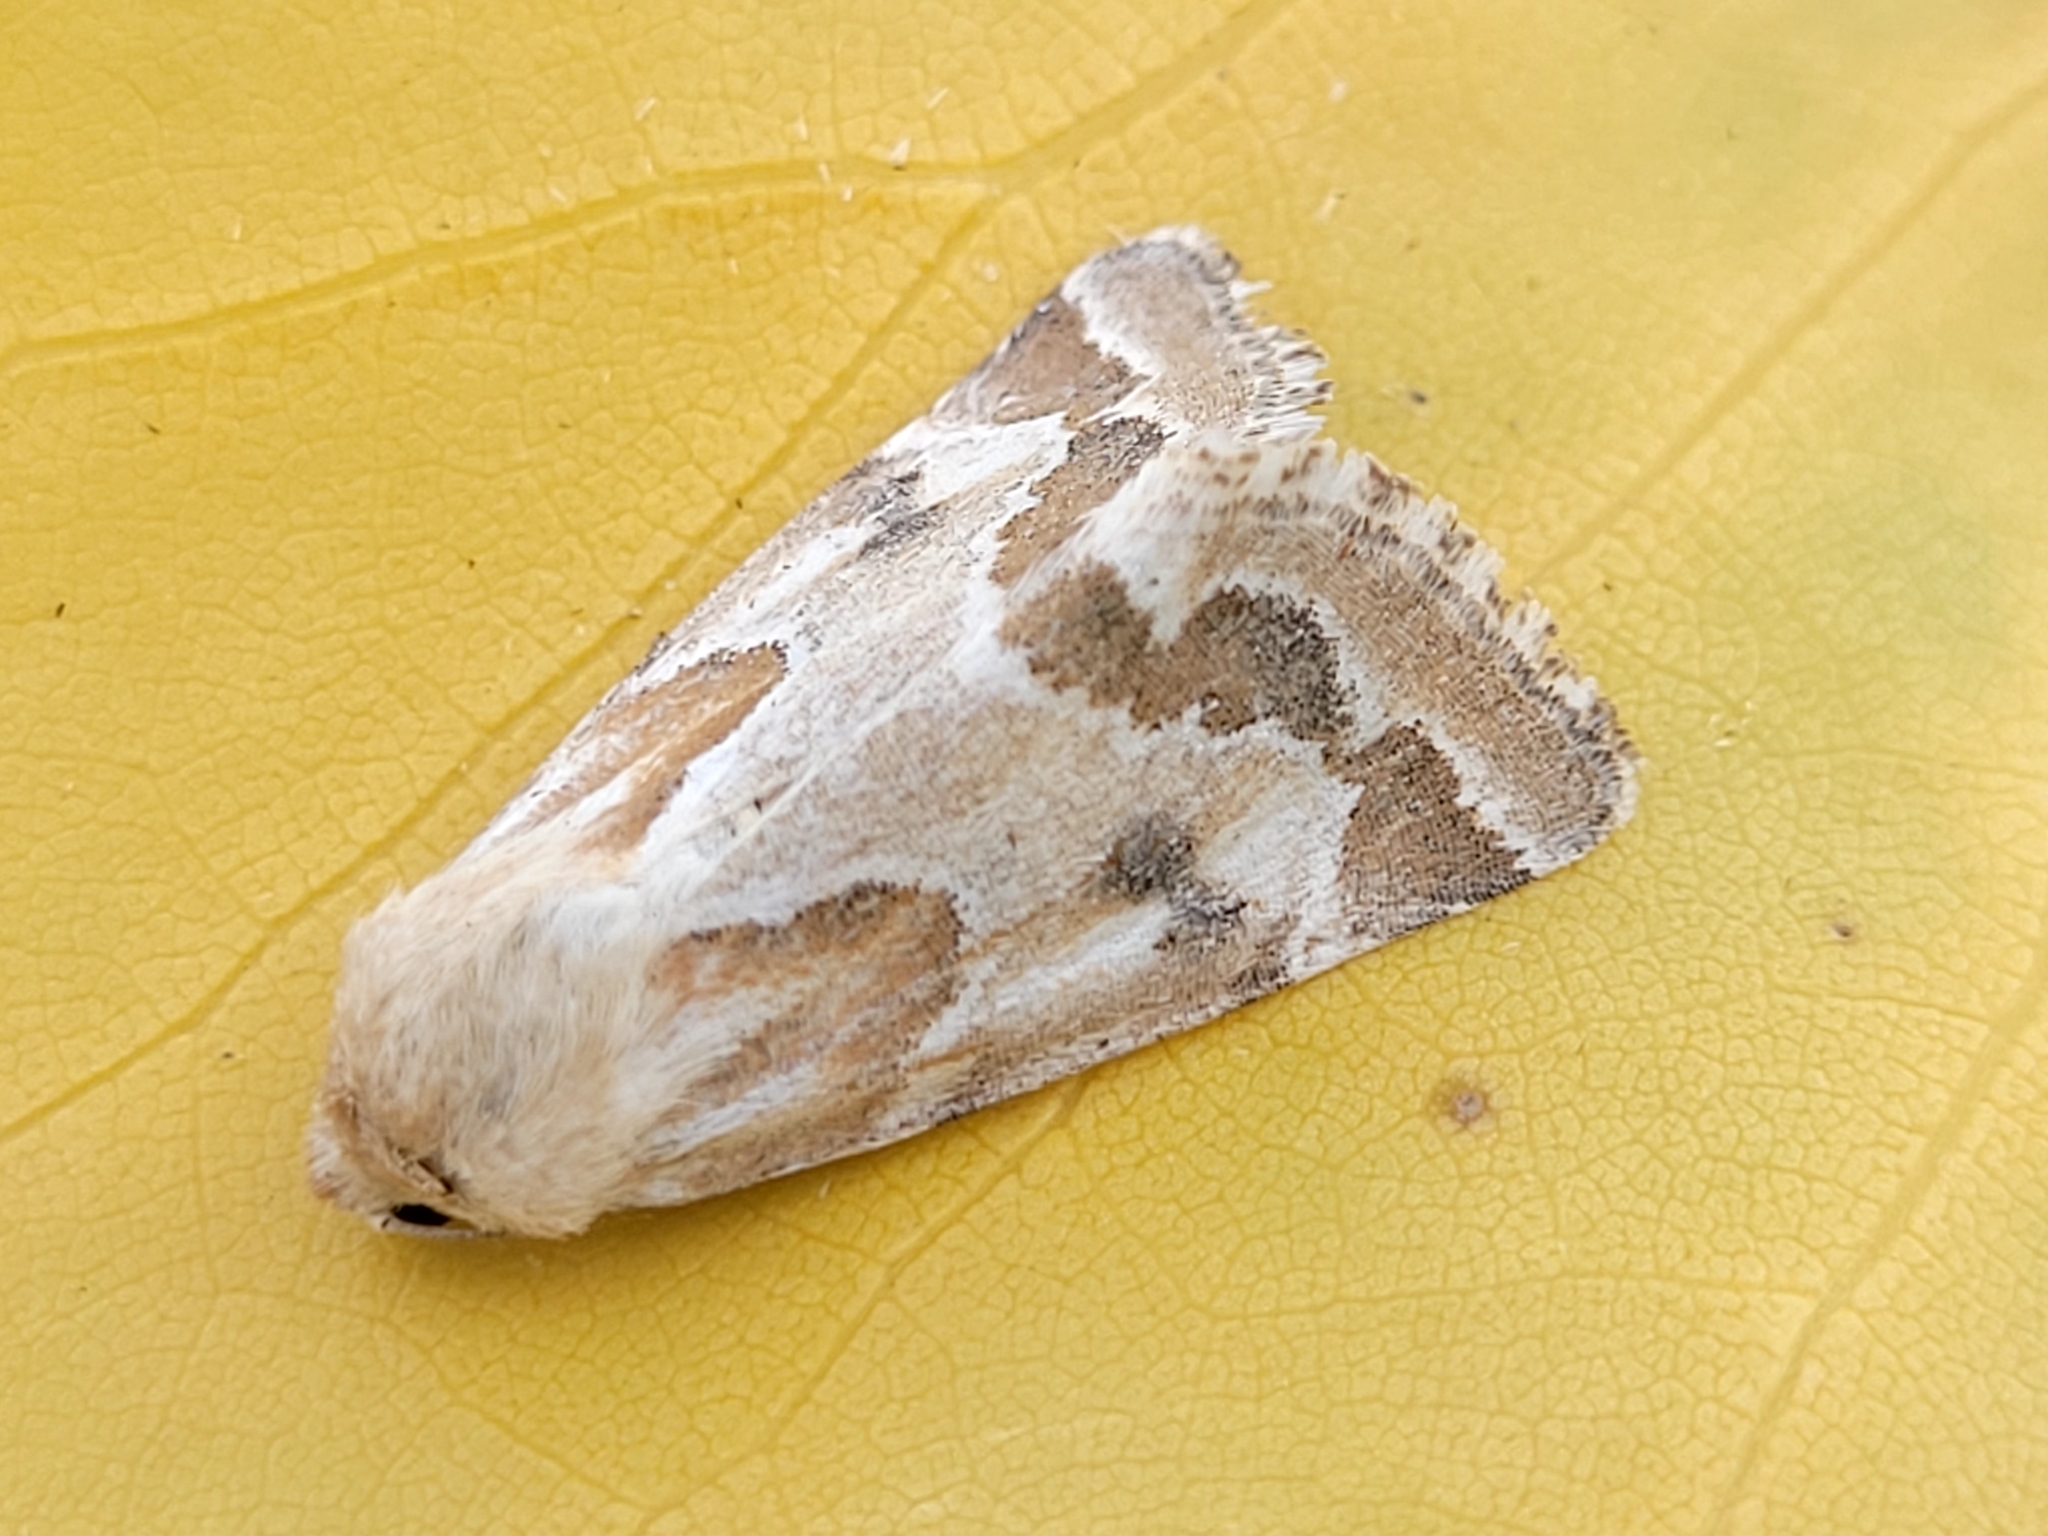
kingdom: Animalia
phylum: Arthropoda
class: Insecta
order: Lepidoptera
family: Noctuidae
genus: Schinia
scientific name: Schinia acutilinea
